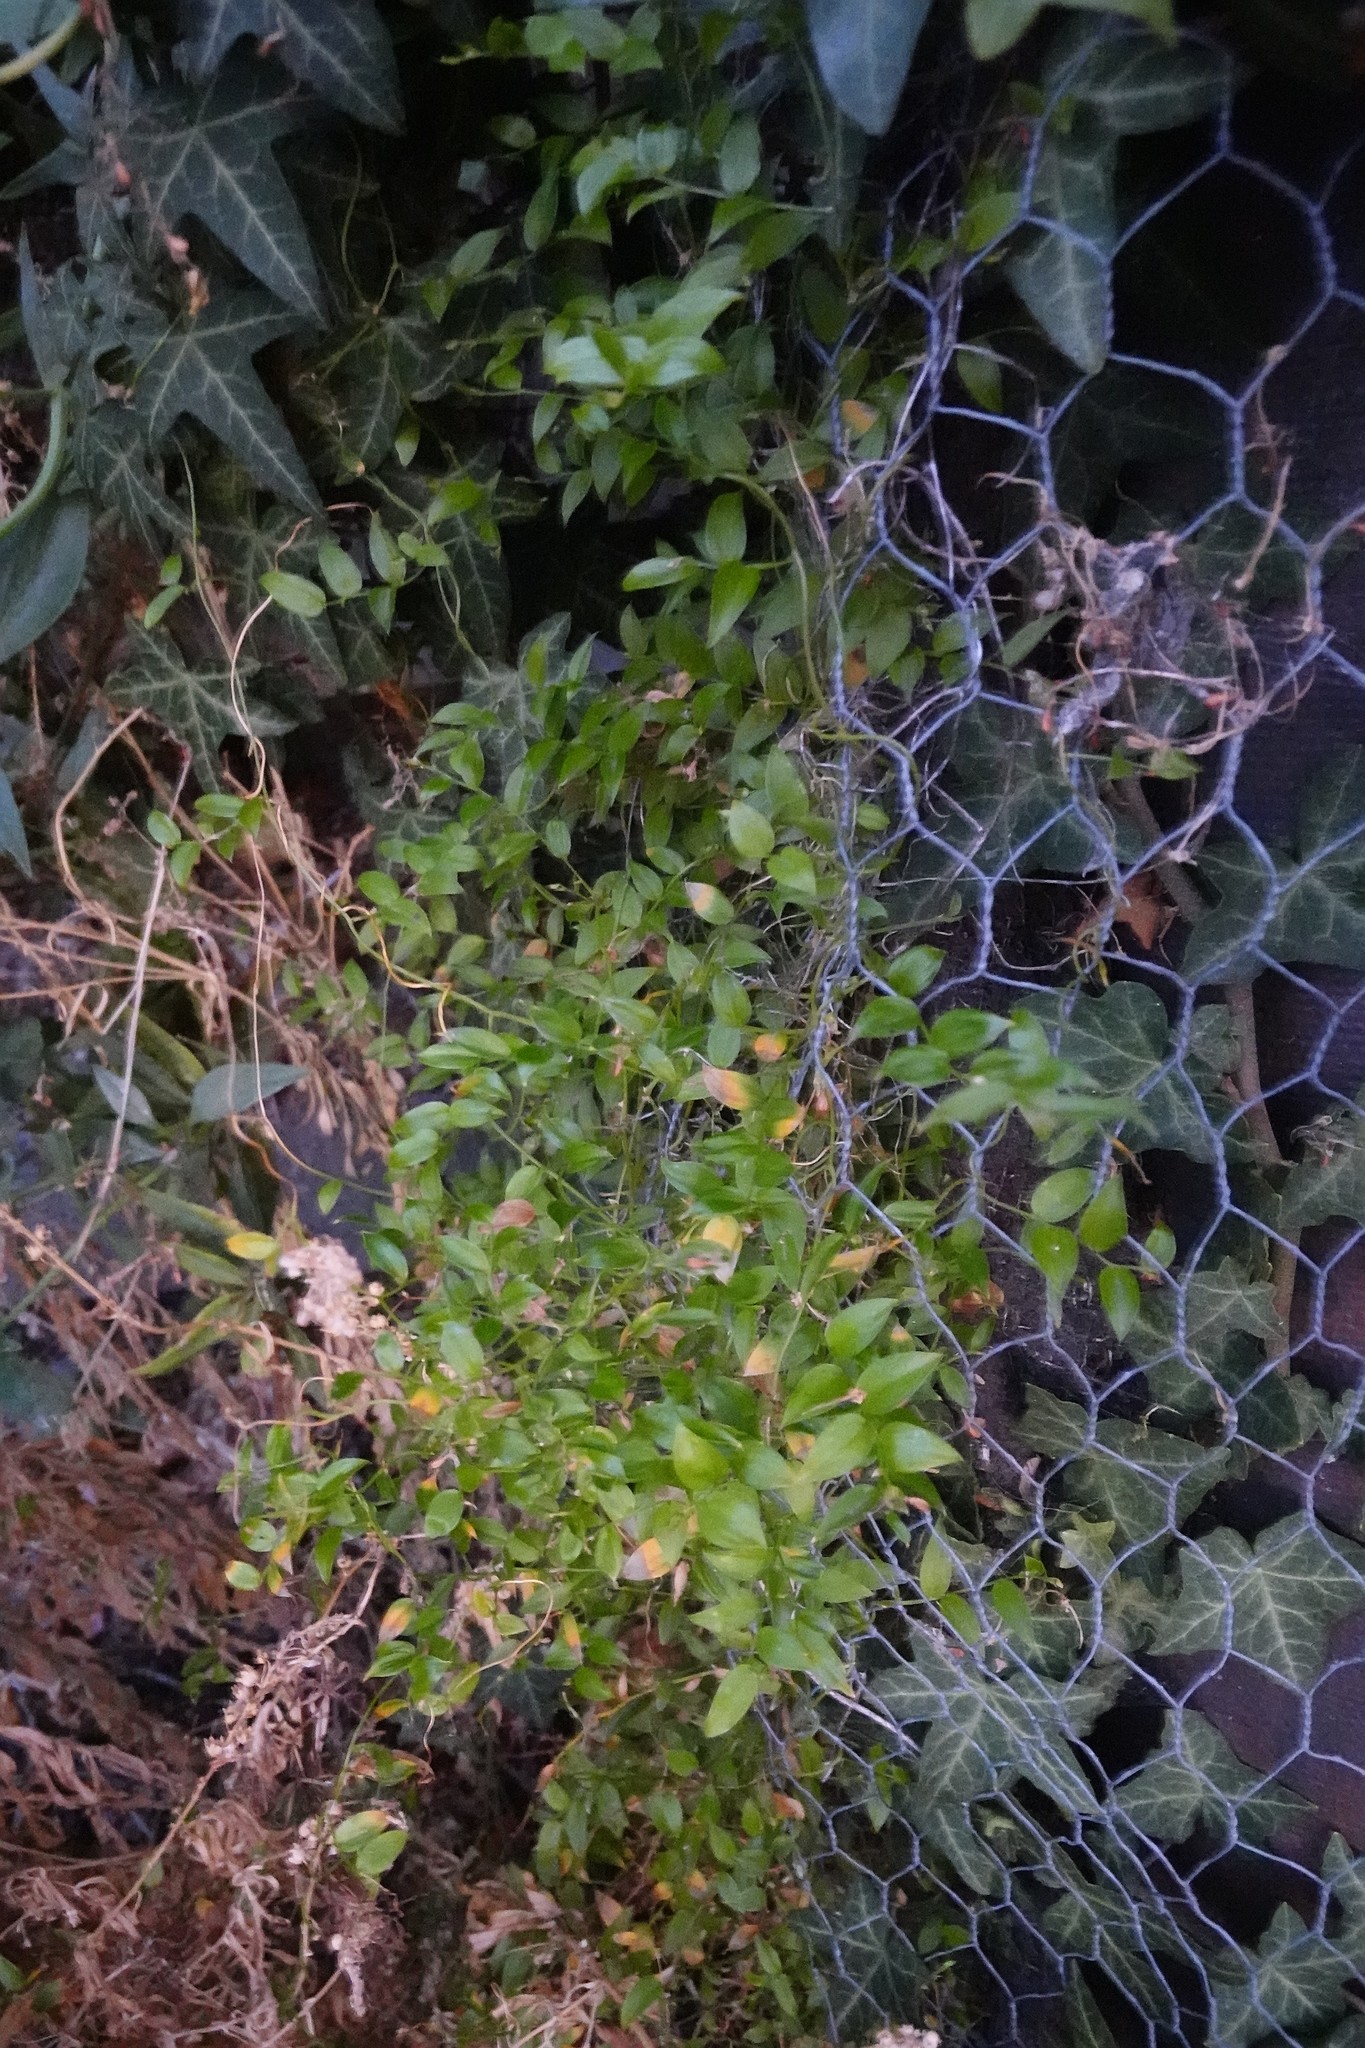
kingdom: Plantae
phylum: Tracheophyta
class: Liliopsida
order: Asparagales
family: Asparagaceae
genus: Asparagus
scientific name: Asparagus asparagoides
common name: African asparagus fern
